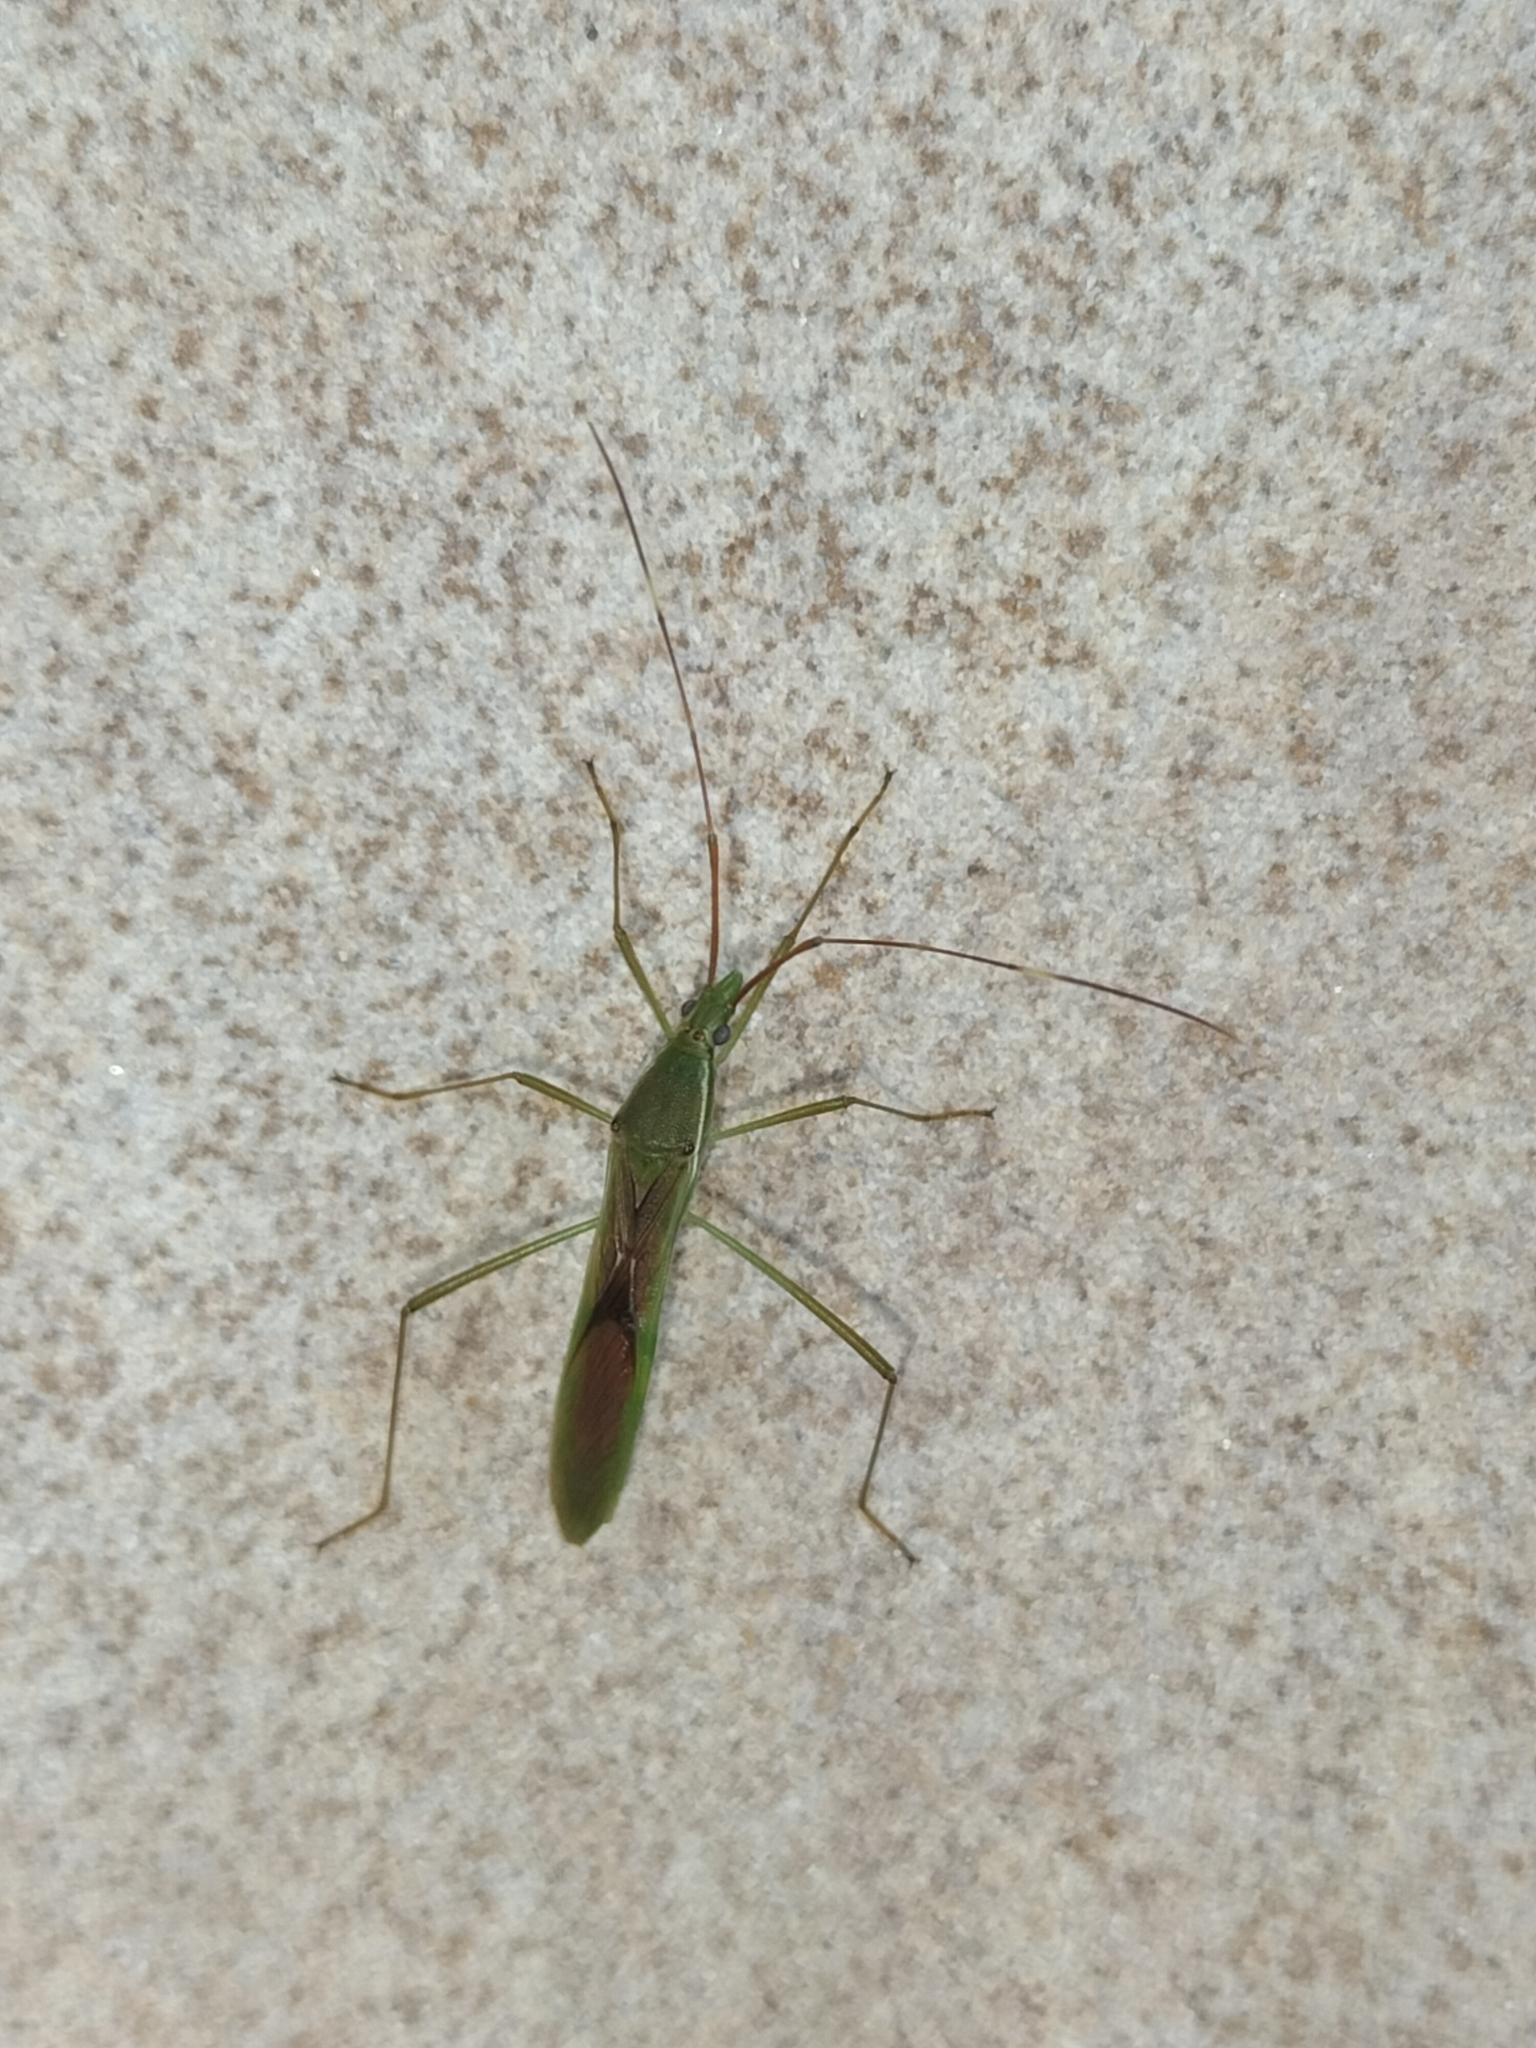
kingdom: Animalia
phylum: Arthropoda
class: Insecta
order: Hemiptera
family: Alydidae
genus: Leptocorisa
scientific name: Leptocorisa acuta
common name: Gandhi bug
